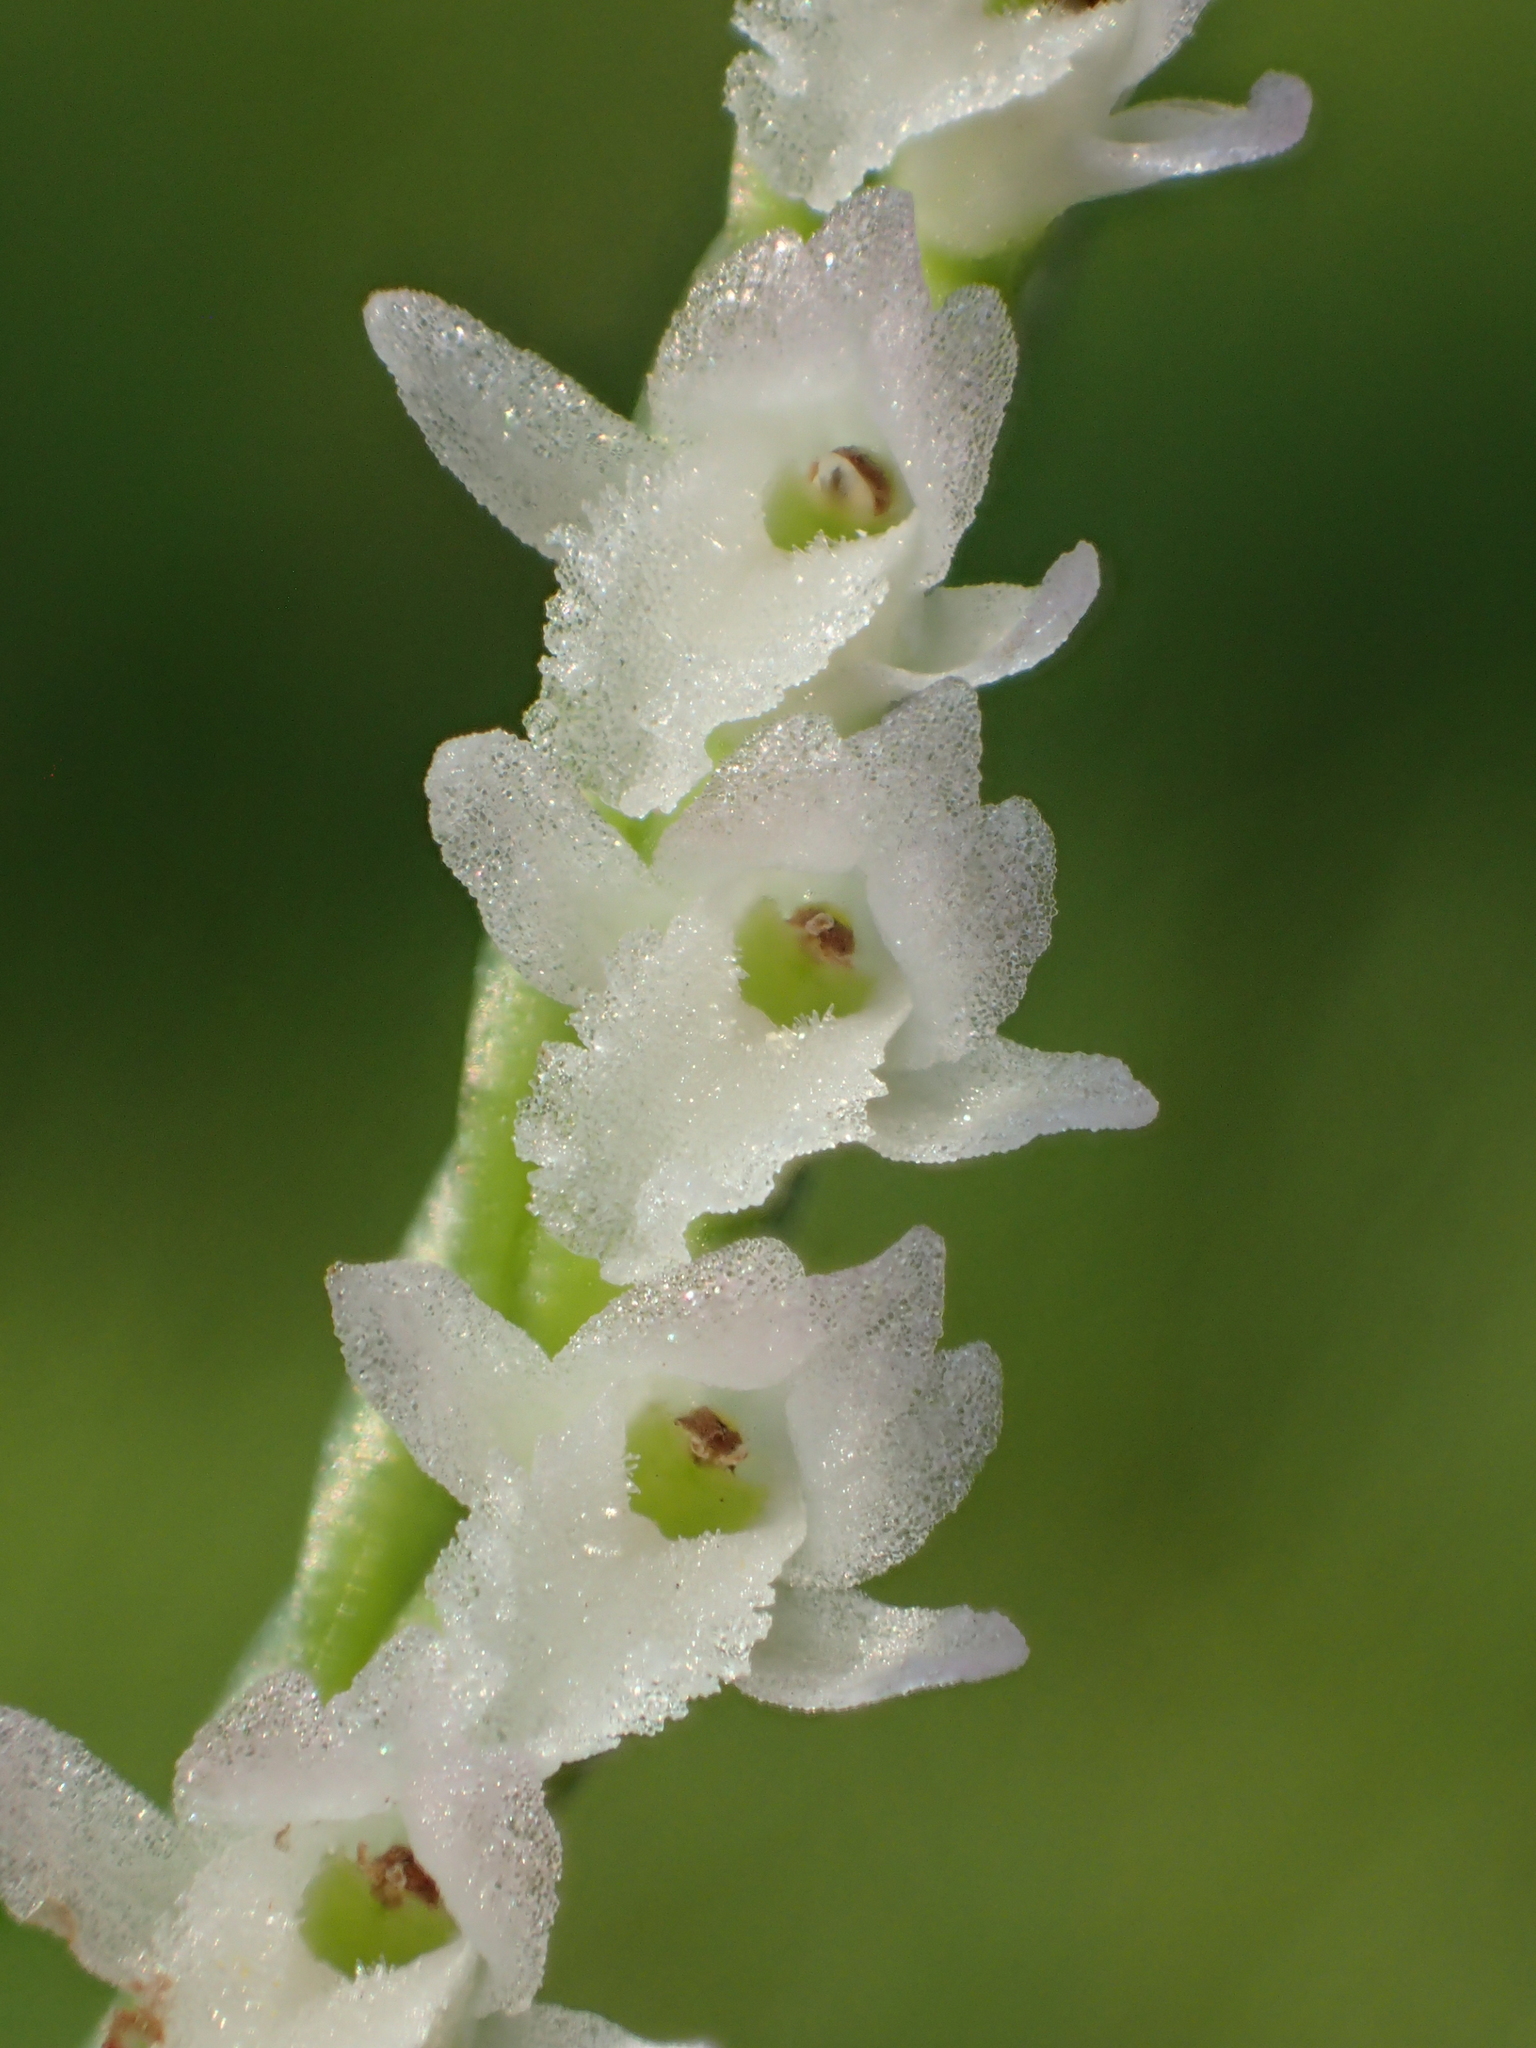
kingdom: Plantae
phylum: Tracheophyta
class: Liliopsida
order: Asparagales
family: Orchidaceae
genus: Spiranthes
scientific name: Spiranthes sinensis
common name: Chinese spiranthes
